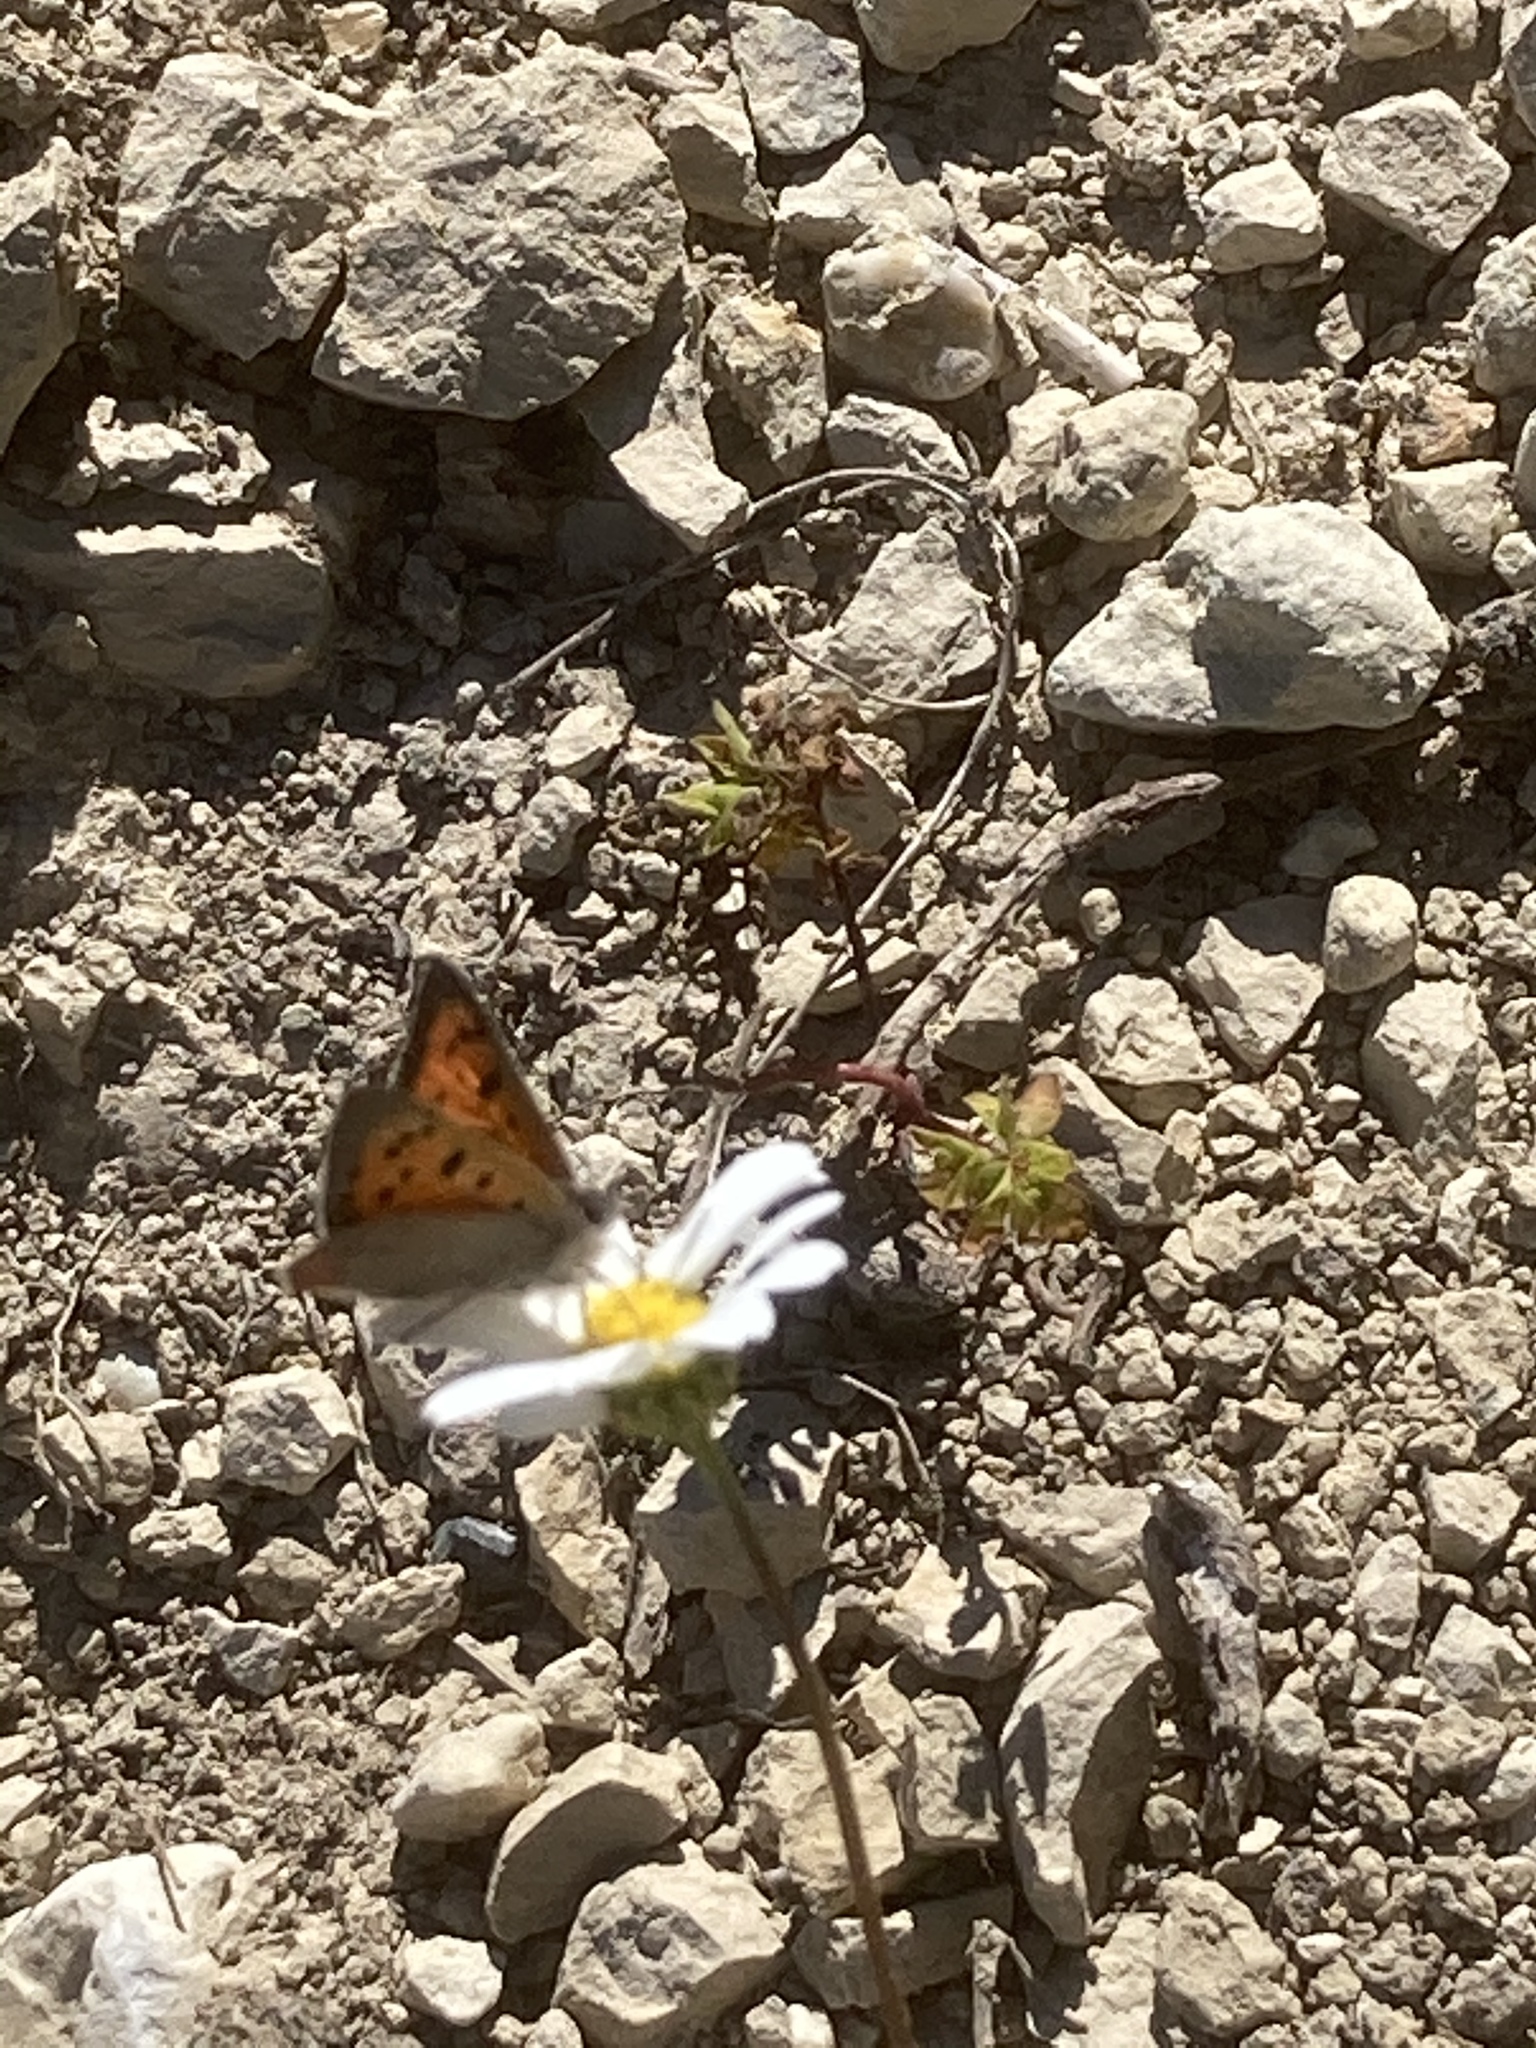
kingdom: Animalia
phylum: Arthropoda
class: Insecta
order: Lepidoptera
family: Lycaenidae
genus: Lycaena
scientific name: Lycaena phlaeas
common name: Small copper
